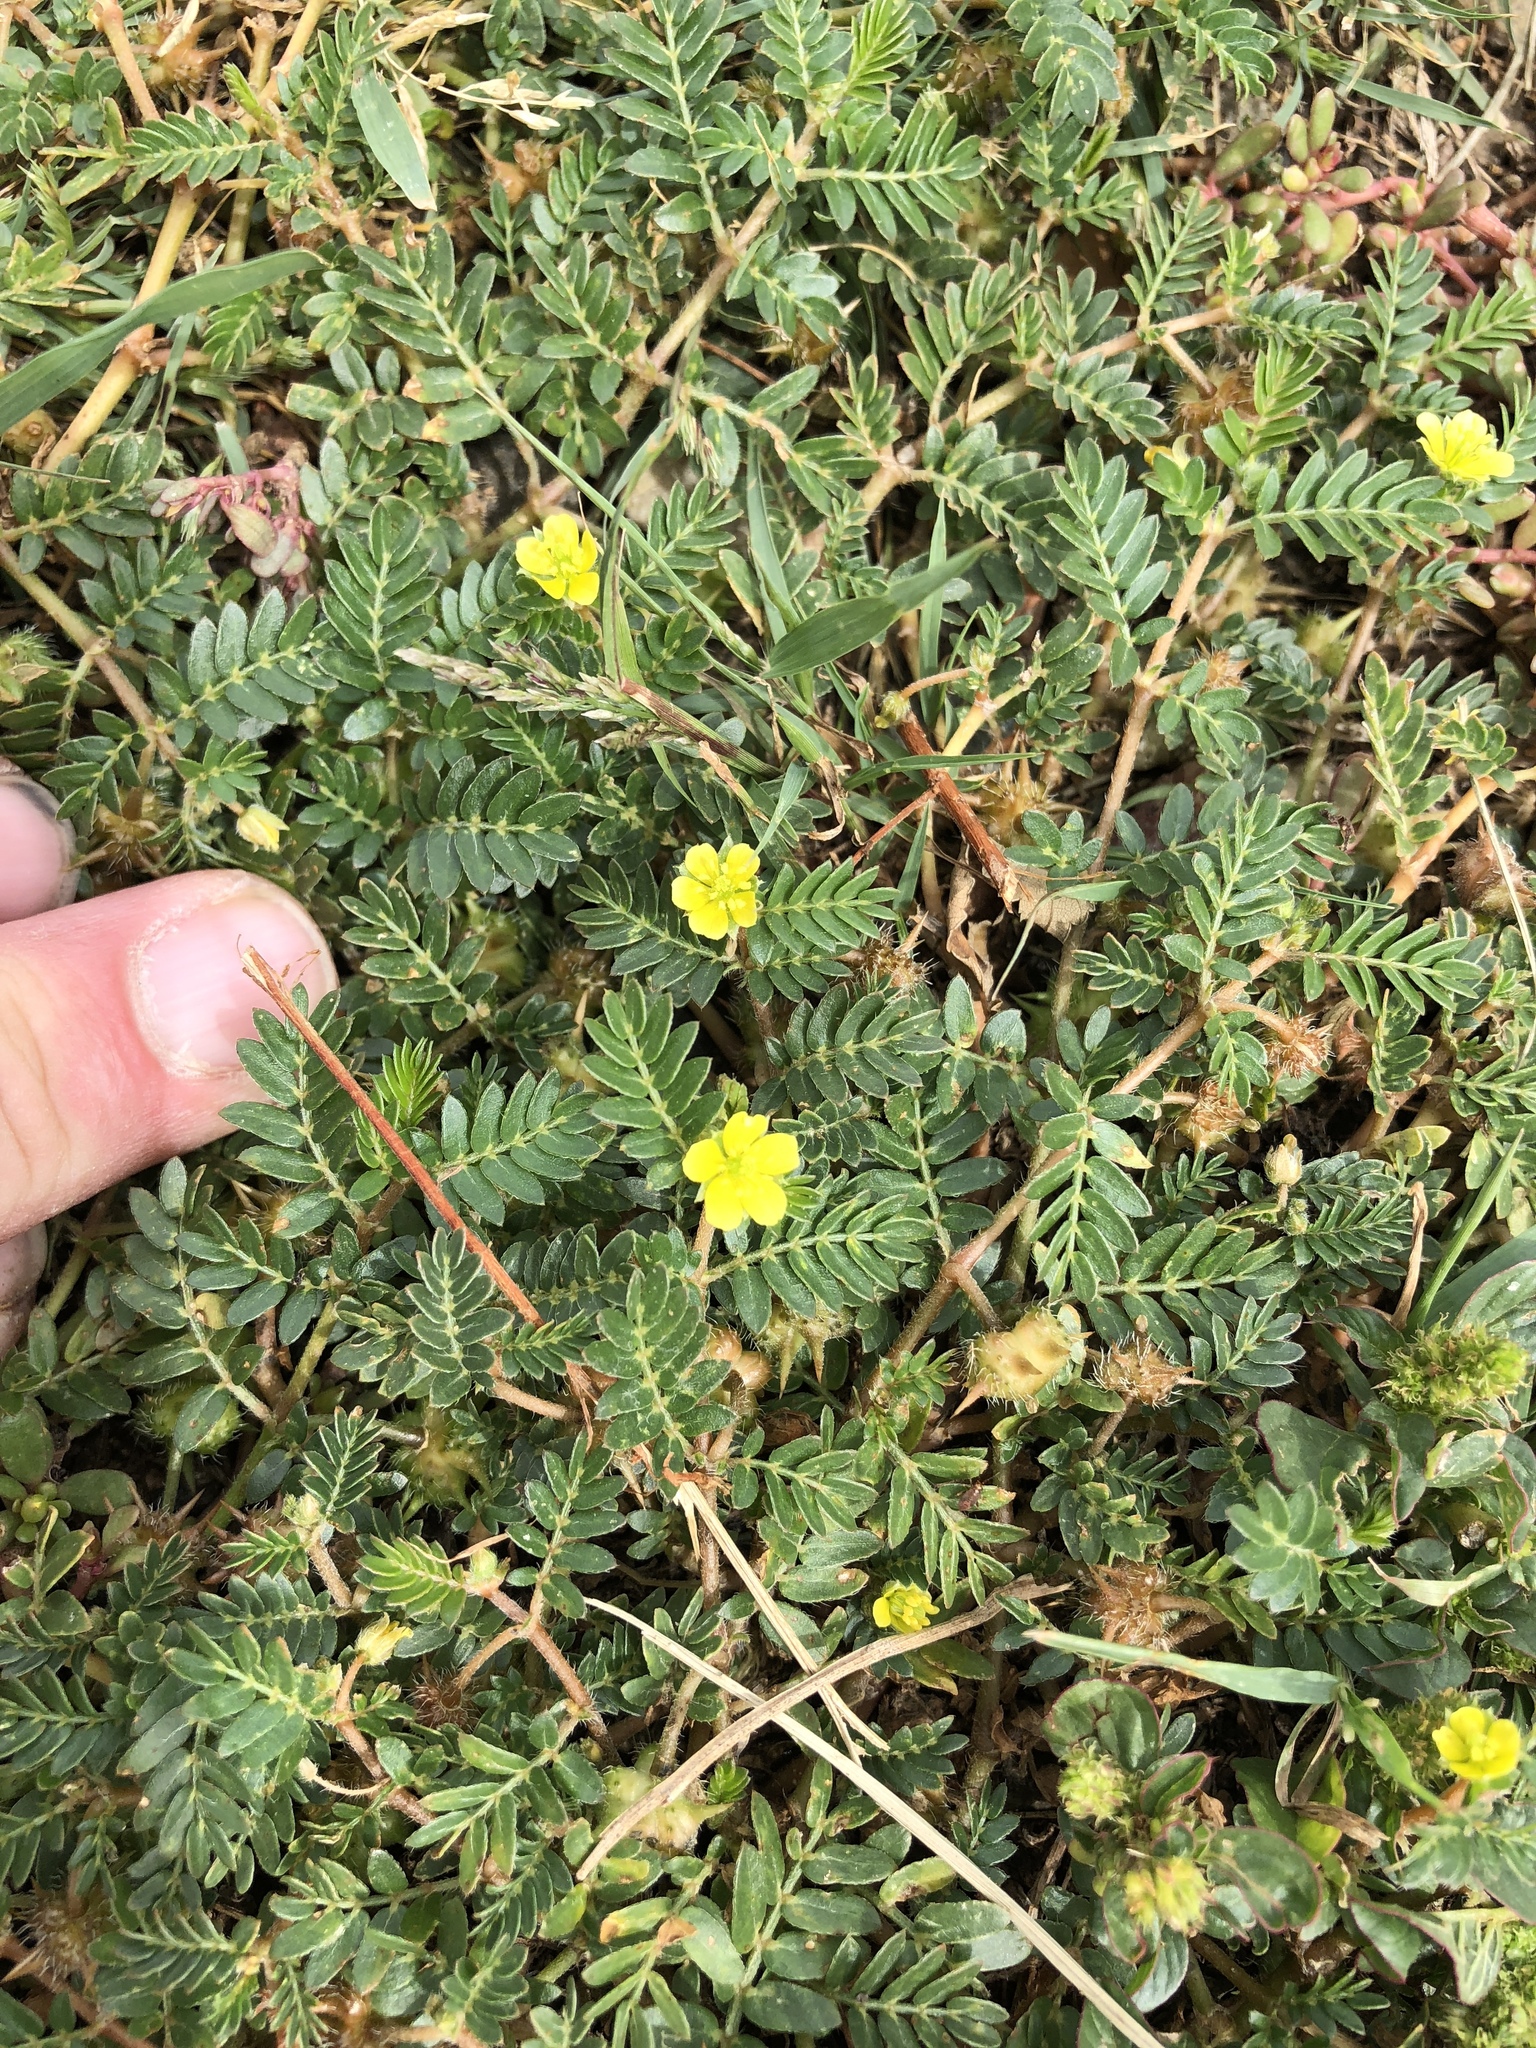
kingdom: Plantae
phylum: Tracheophyta
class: Magnoliopsida
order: Zygophyllales
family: Zygophyllaceae
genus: Tribulus
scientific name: Tribulus terrestris
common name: Puncturevine
